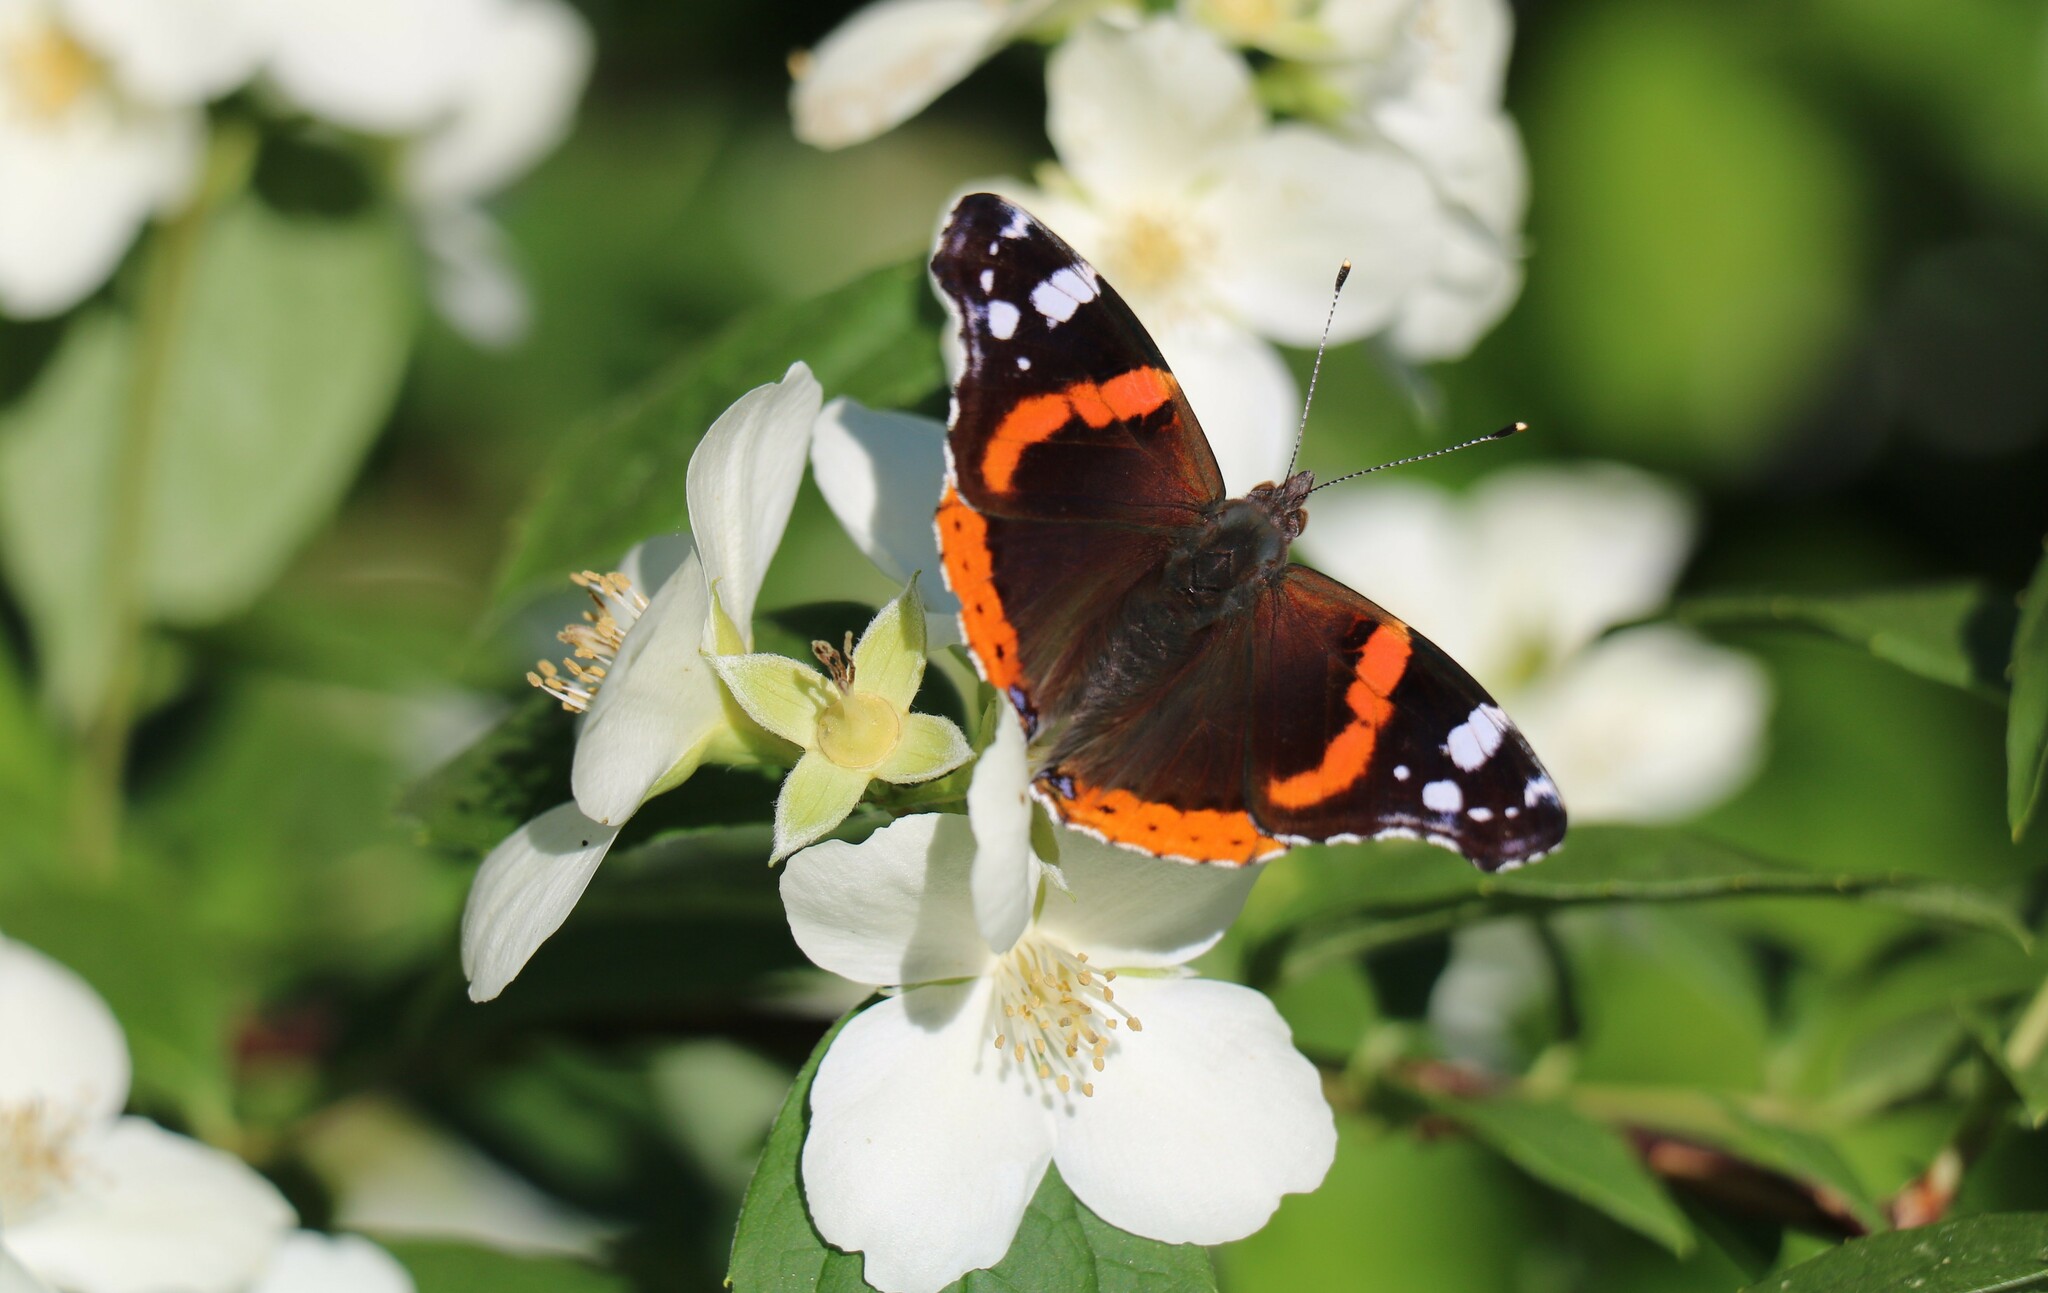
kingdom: Animalia
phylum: Arthropoda
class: Insecta
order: Lepidoptera
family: Nymphalidae
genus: Vanessa
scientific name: Vanessa atalanta
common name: Red admiral
